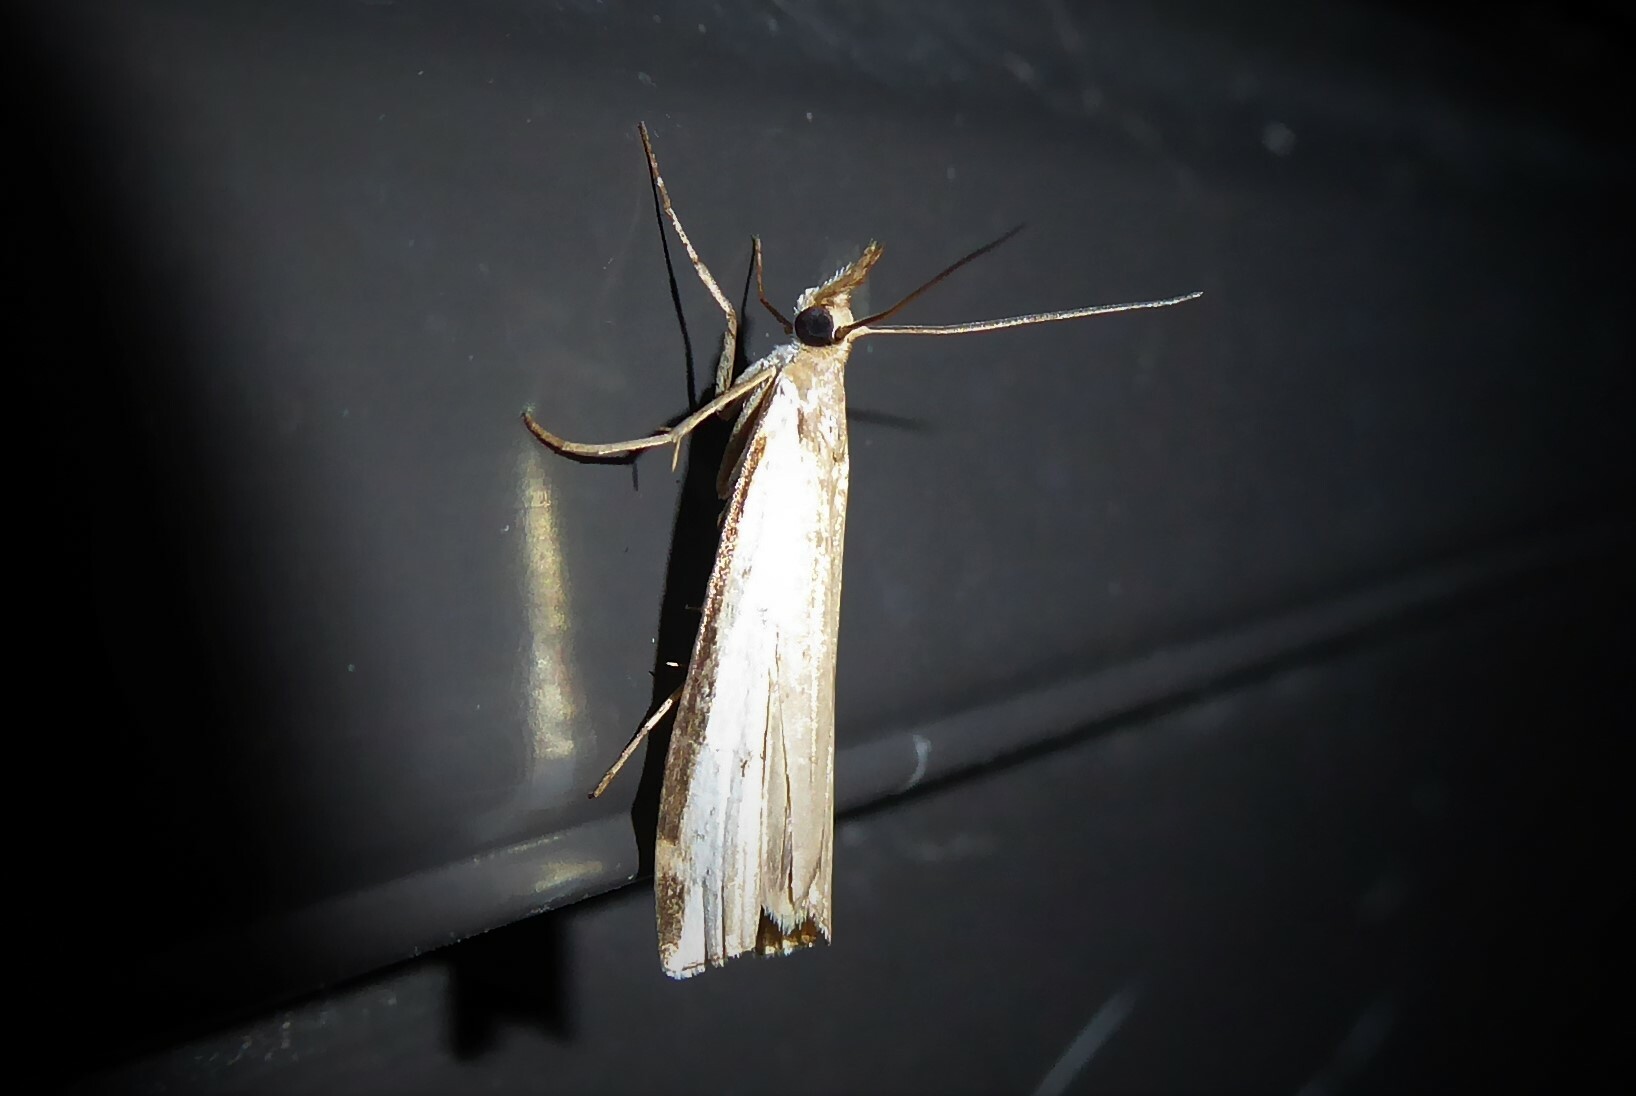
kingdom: Animalia
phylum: Arthropoda
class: Insecta
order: Lepidoptera
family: Crambidae
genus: Orocrambus
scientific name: Orocrambus flexuosellus
